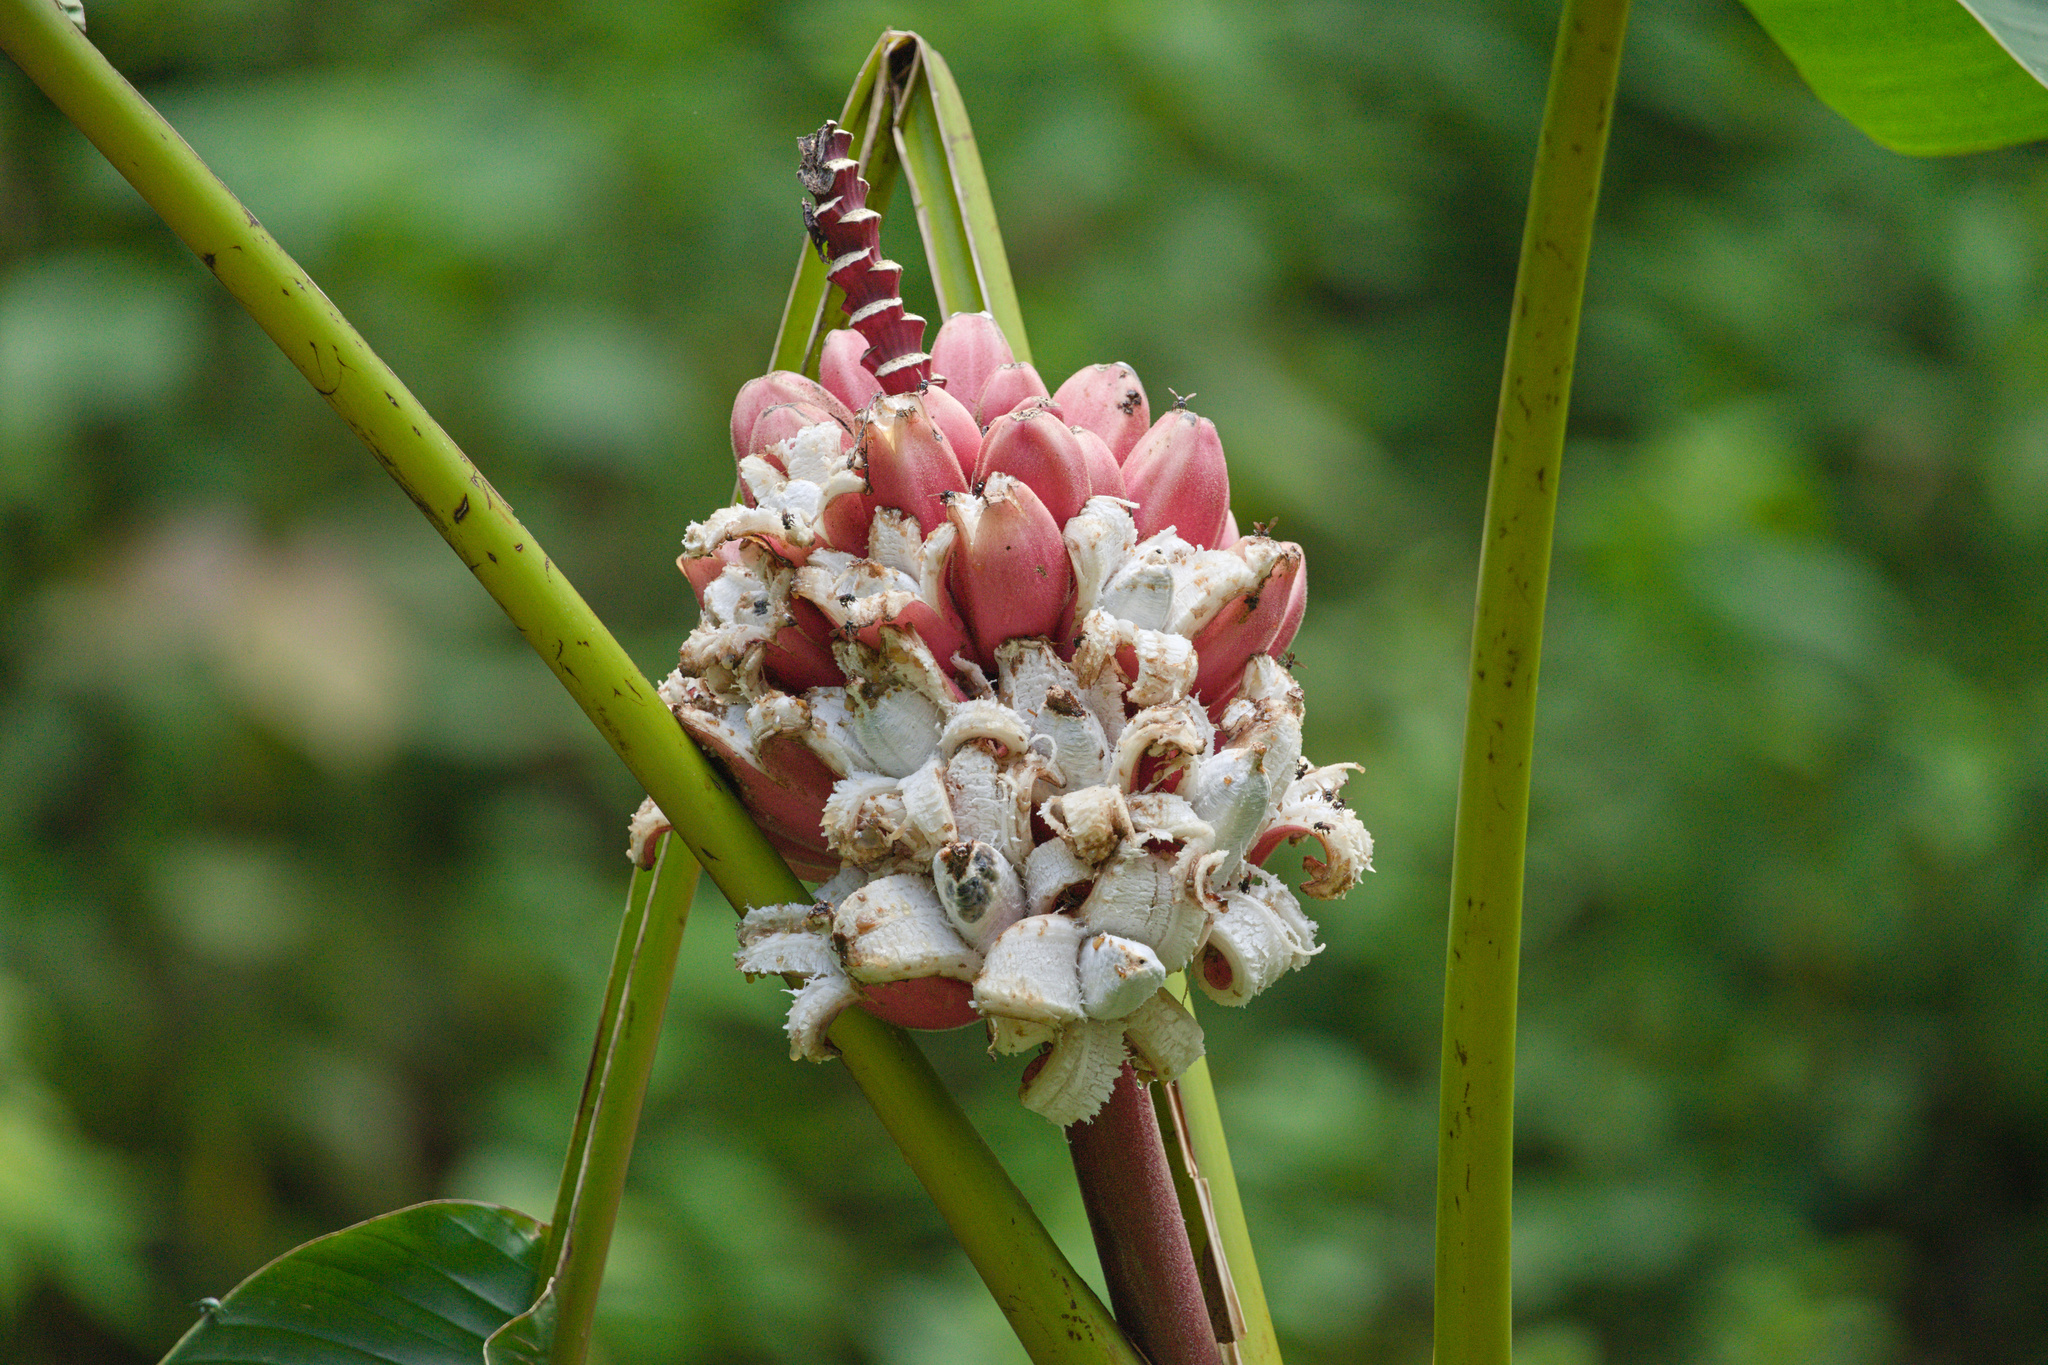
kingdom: Plantae
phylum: Tracheophyta
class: Liliopsida
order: Zingiberales
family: Musaceae
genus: Musa
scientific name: Musa velutina
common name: Pink velvet banana
